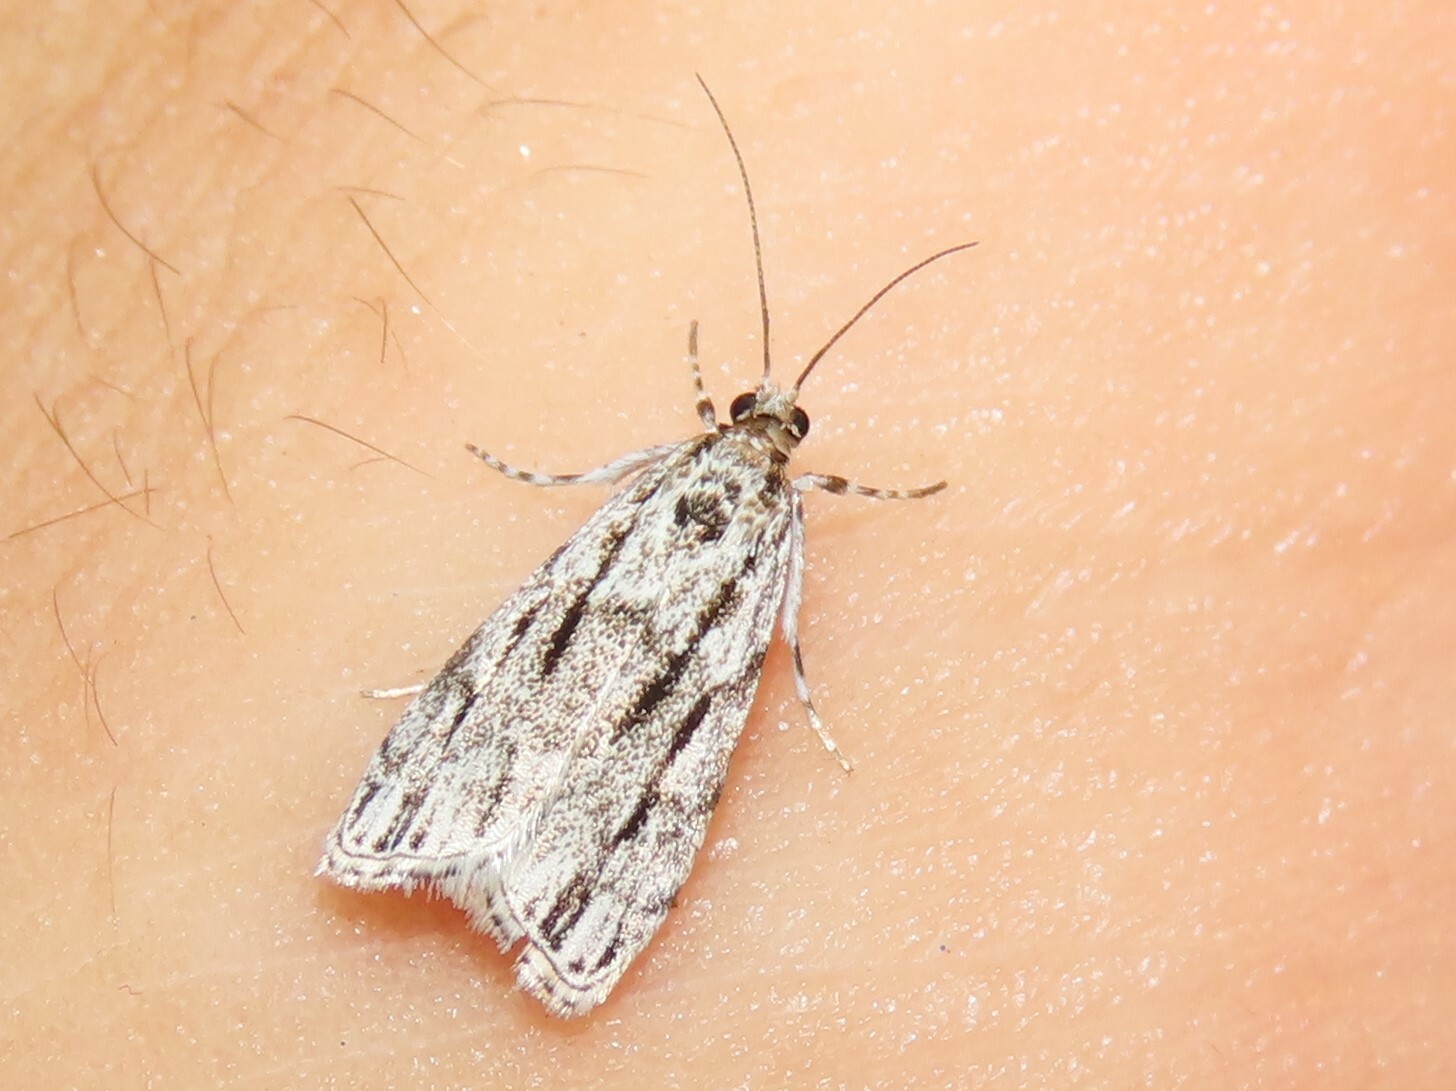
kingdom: Animalia
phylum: Arthropoda
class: Insecta
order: Lepidoptera
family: Crambidae
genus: Eudonia
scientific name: Eudonia strigalis
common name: Striped eudonia moth
